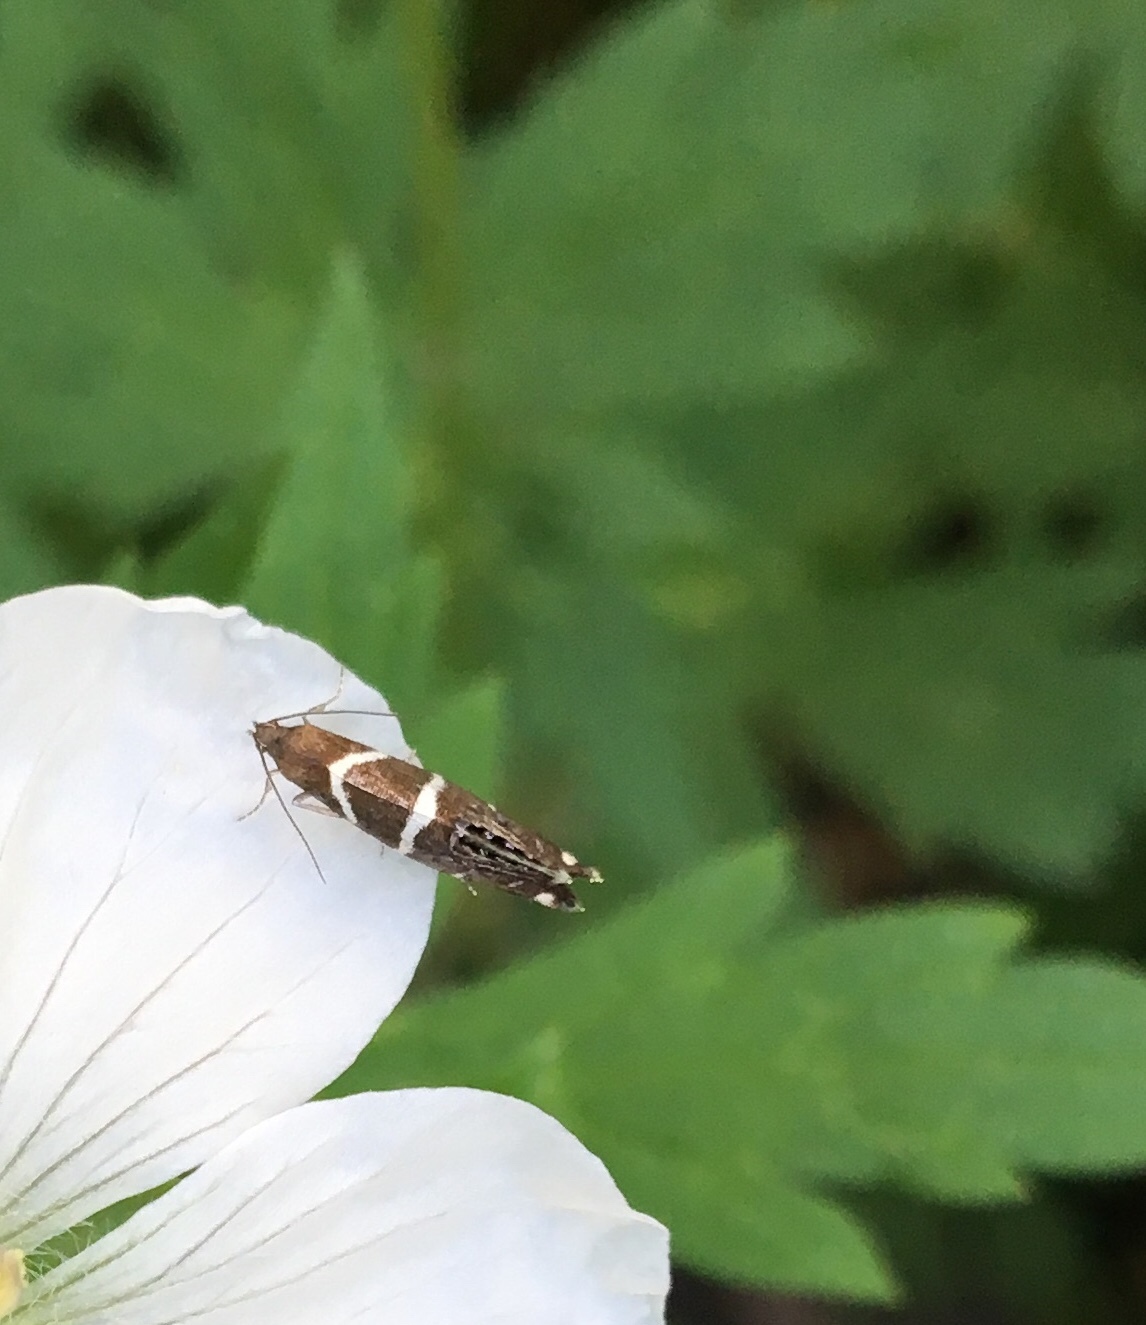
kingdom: Animalia
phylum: Arthropoda
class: Insecta
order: Lepidoptera
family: Glyphipterigidae
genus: Glyphipterix
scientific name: Glyphipterix bifasciata
